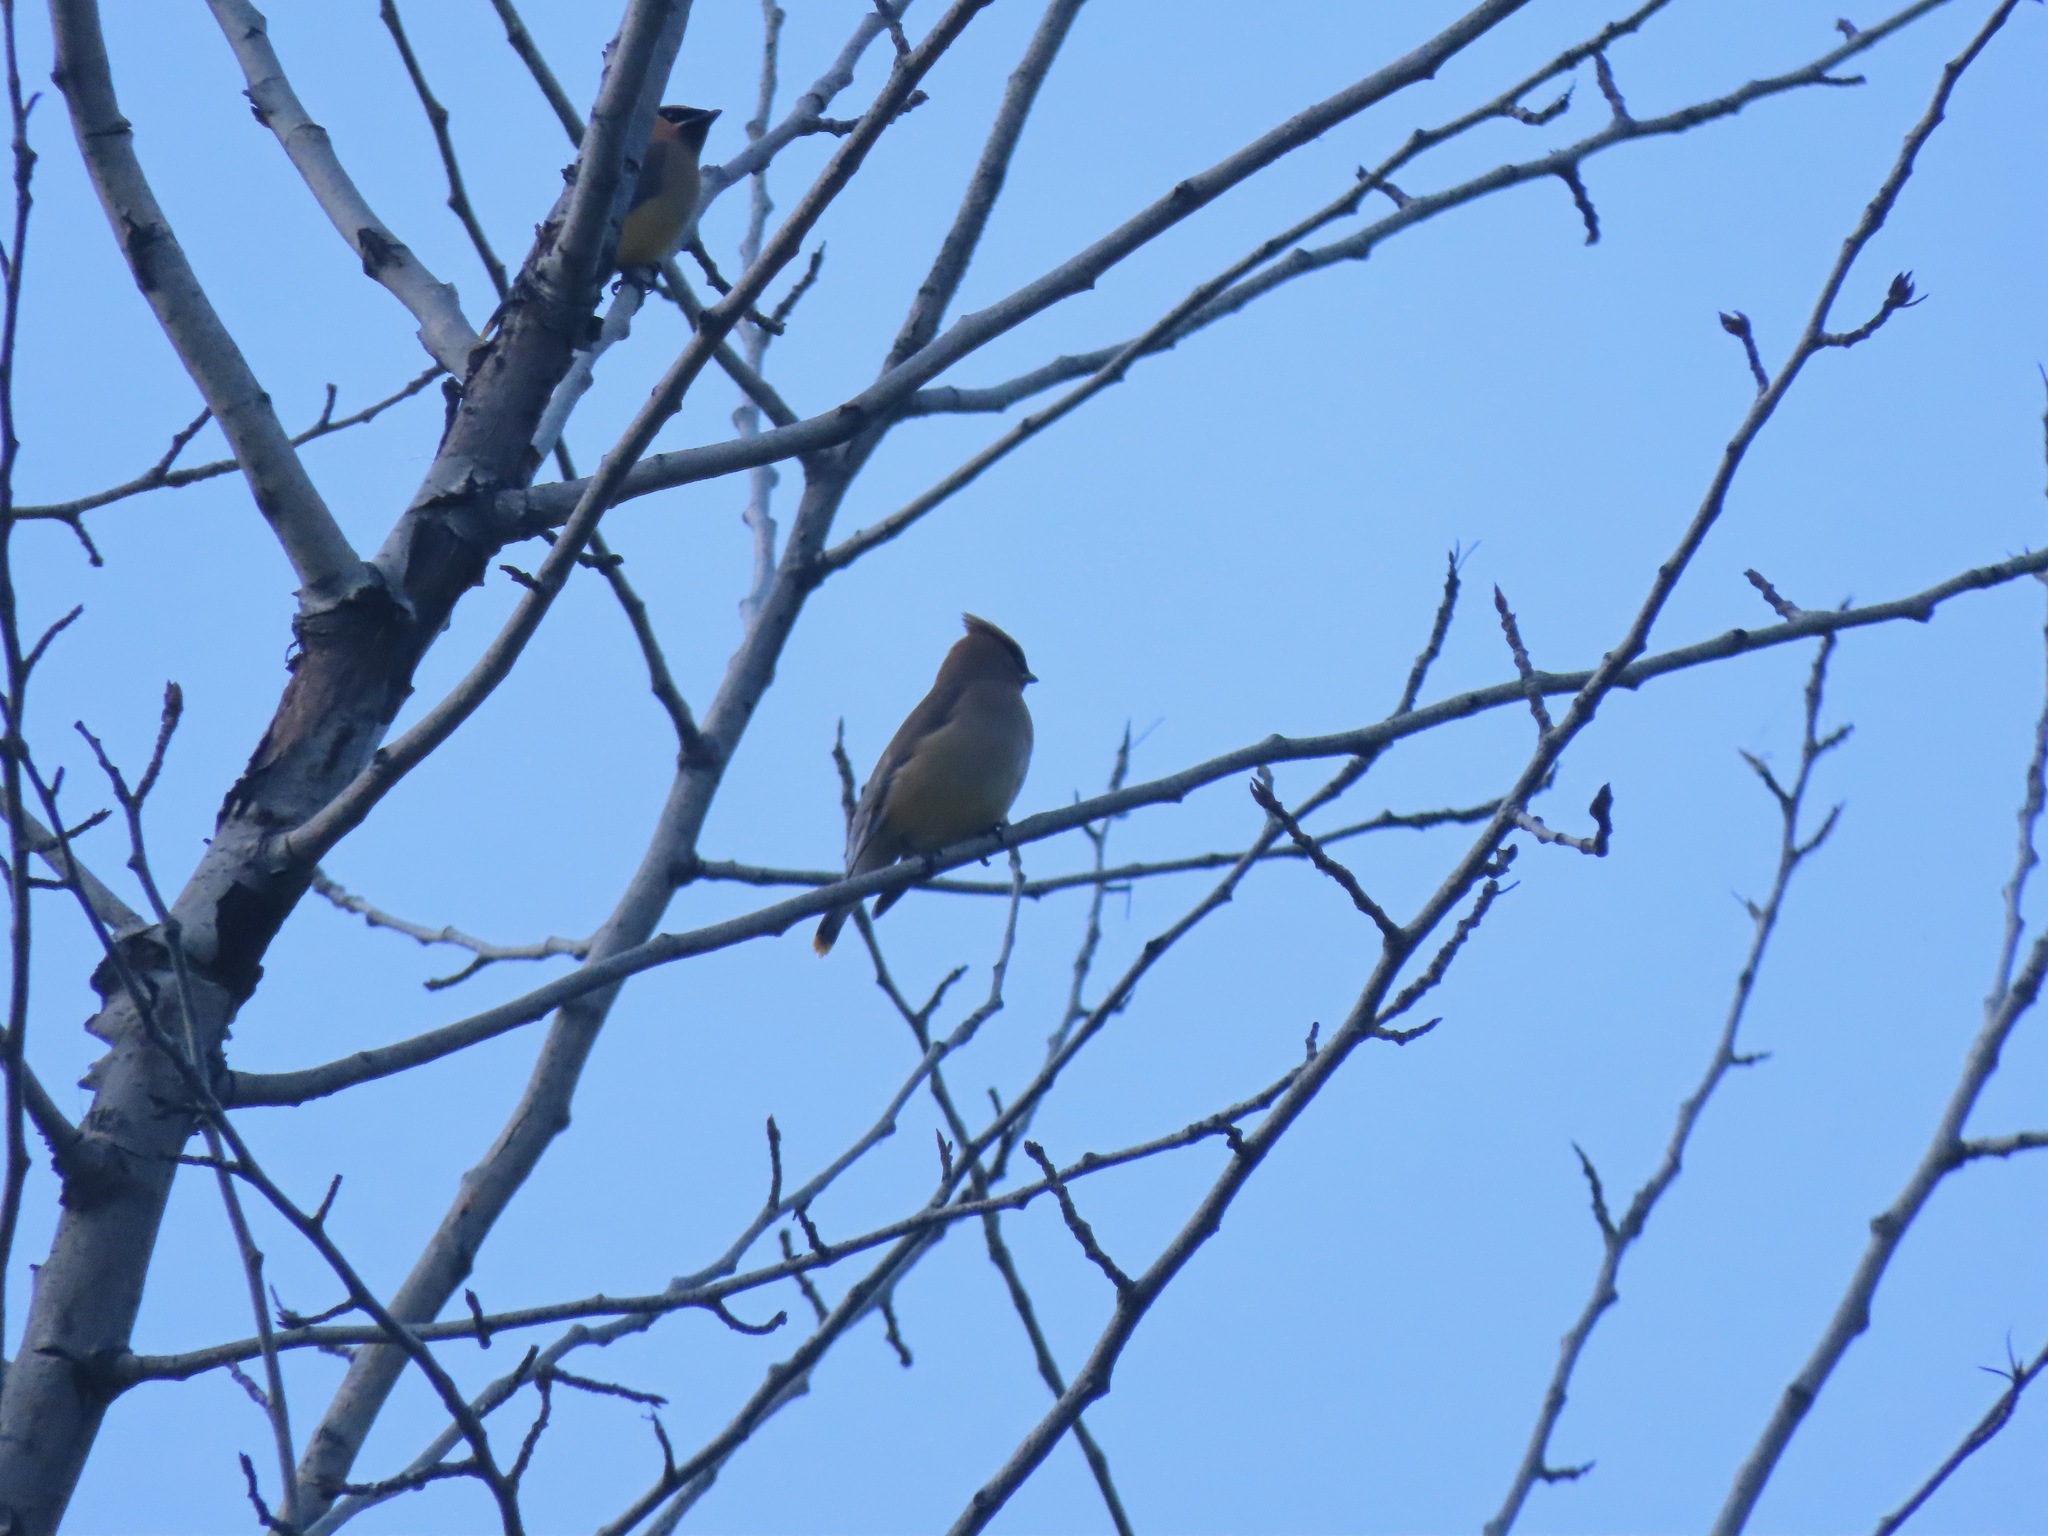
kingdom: Animalia
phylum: Chordata
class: Aves
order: Passeriformes
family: Bombycillidae
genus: Bombycilla
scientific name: Bombycilla cedrorum
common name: Cedar waxwing
